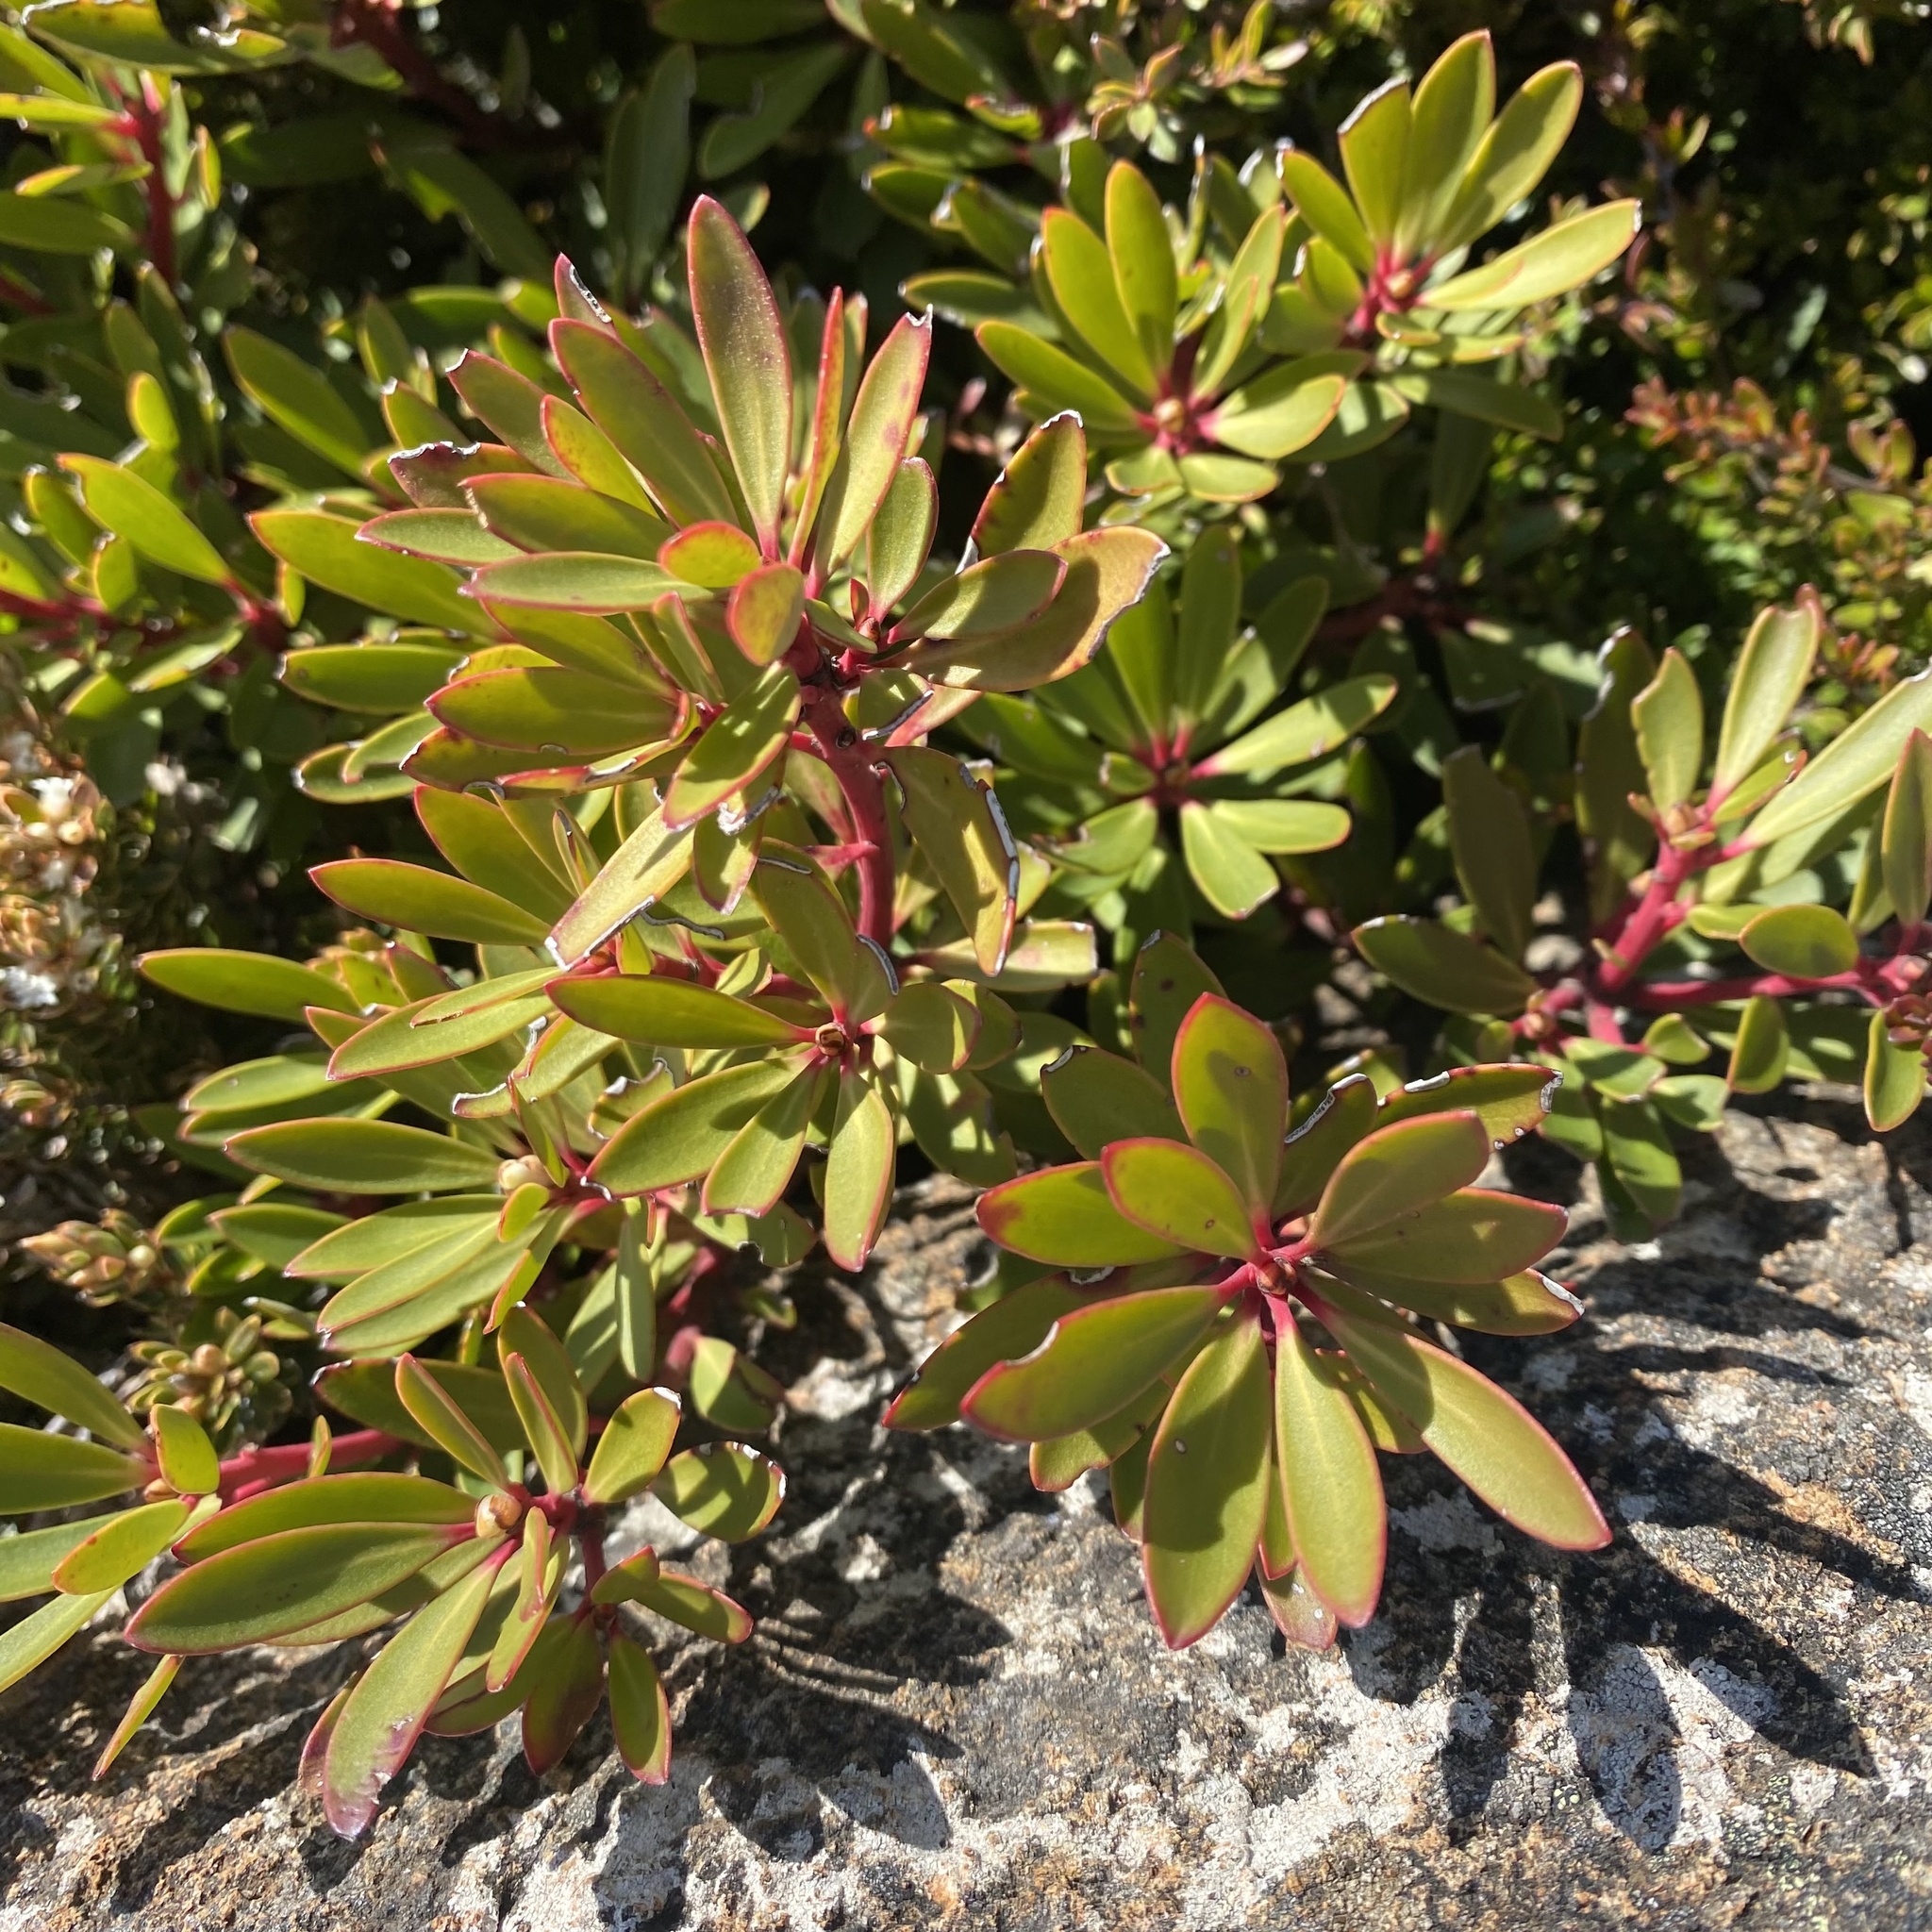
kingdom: Plantae
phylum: Tracheophyta
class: Magnoliopsida
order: Canellales
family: Winteraceae
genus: Drimys
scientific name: Drimys aromatica
